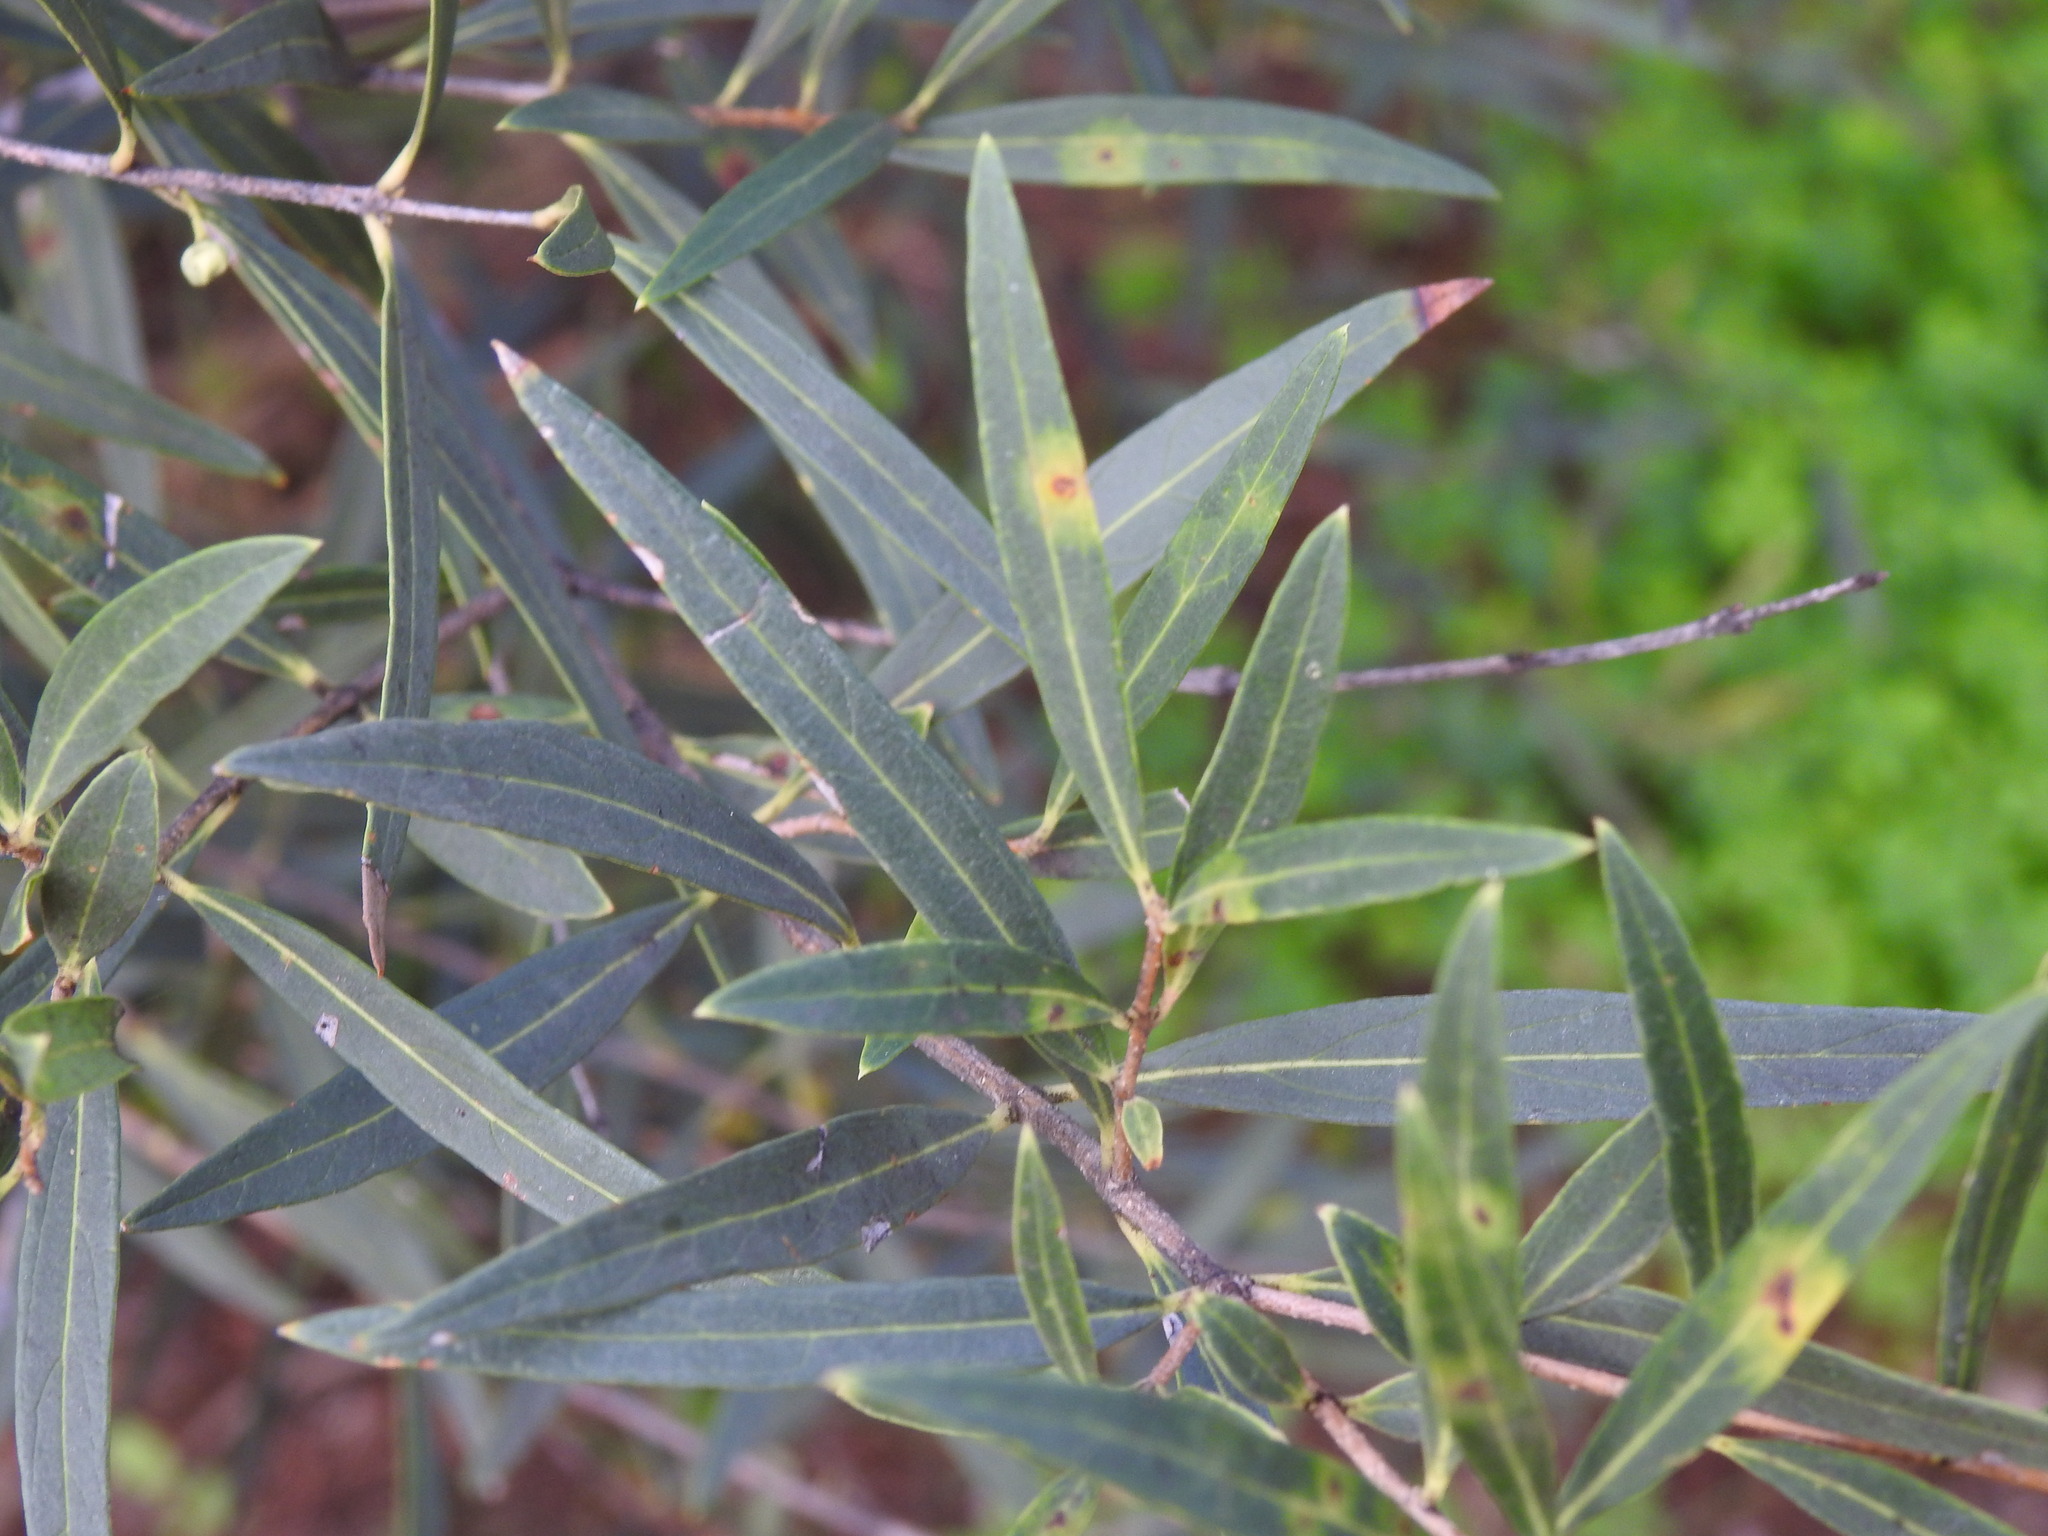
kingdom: Animalia
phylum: Arthropoda
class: Insecta
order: Diptera
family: Cecidomyiidae
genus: Braueriella
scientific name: Braueriella phillyreae
